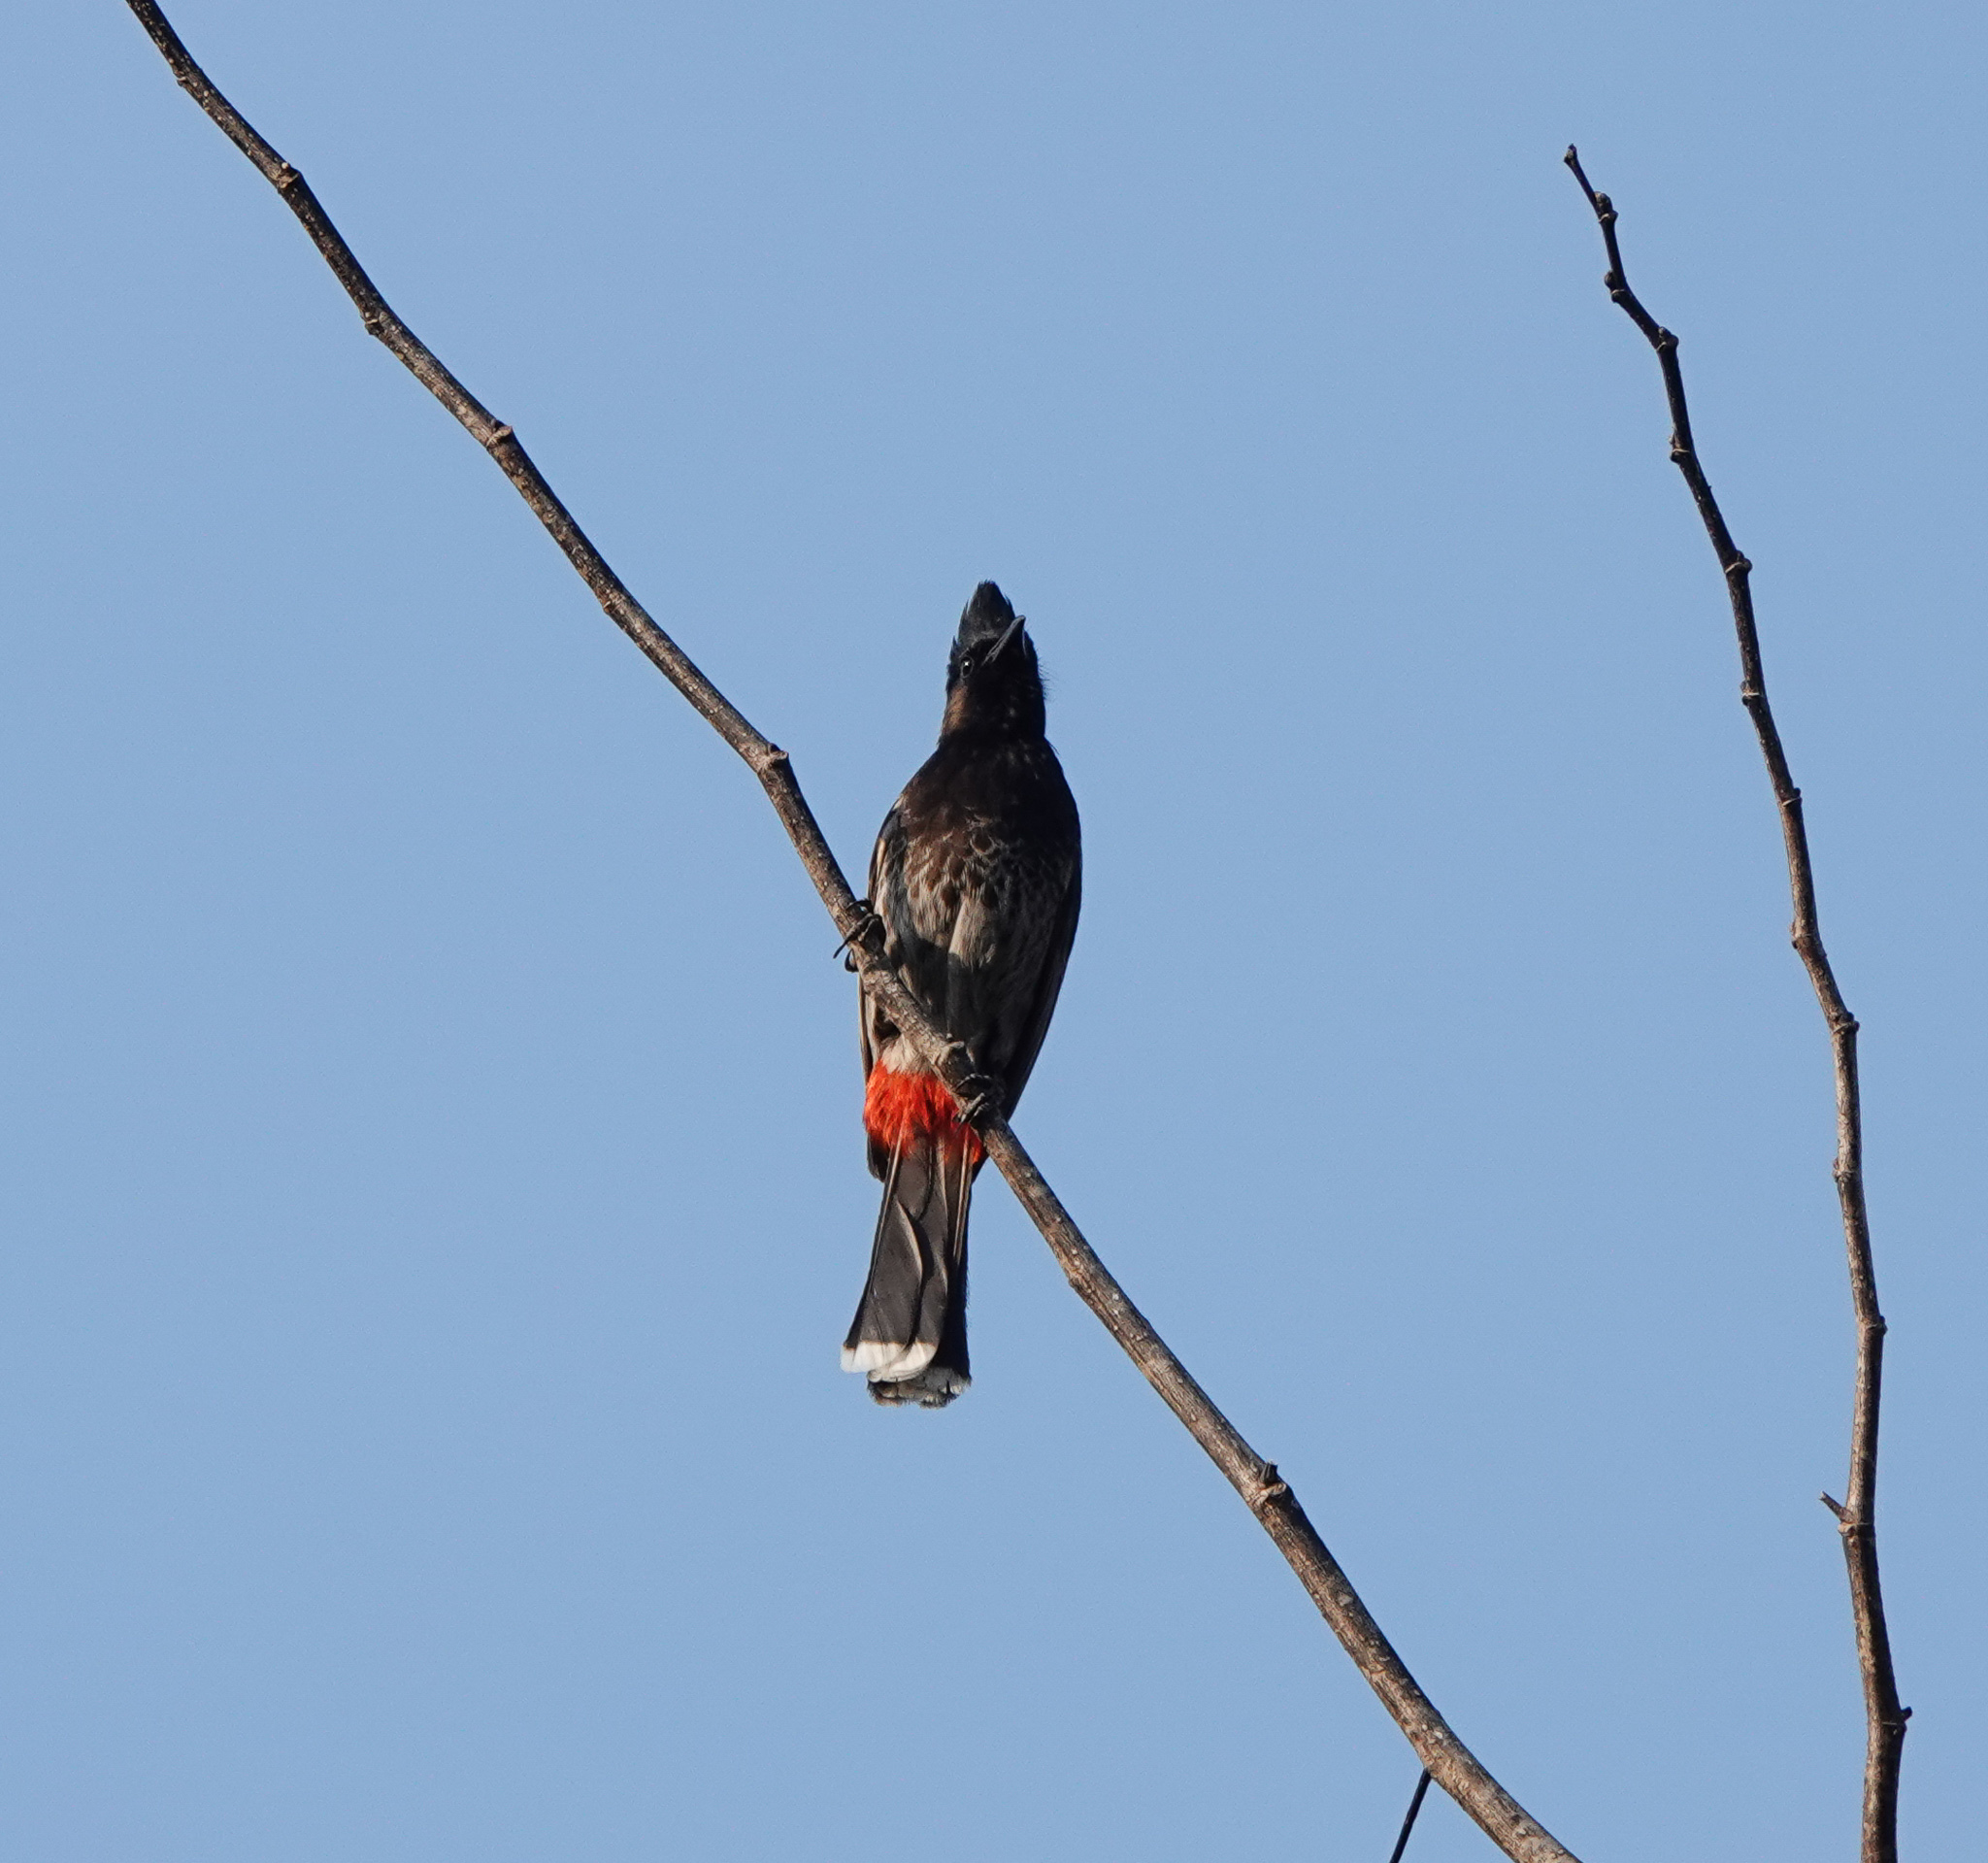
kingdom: Animalia
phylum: Chordata
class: Aves
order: Passeriformes
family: Pycnonotidae
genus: Pycnonotus
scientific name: Pycnonotus cafer
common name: Red-vented bulbul
